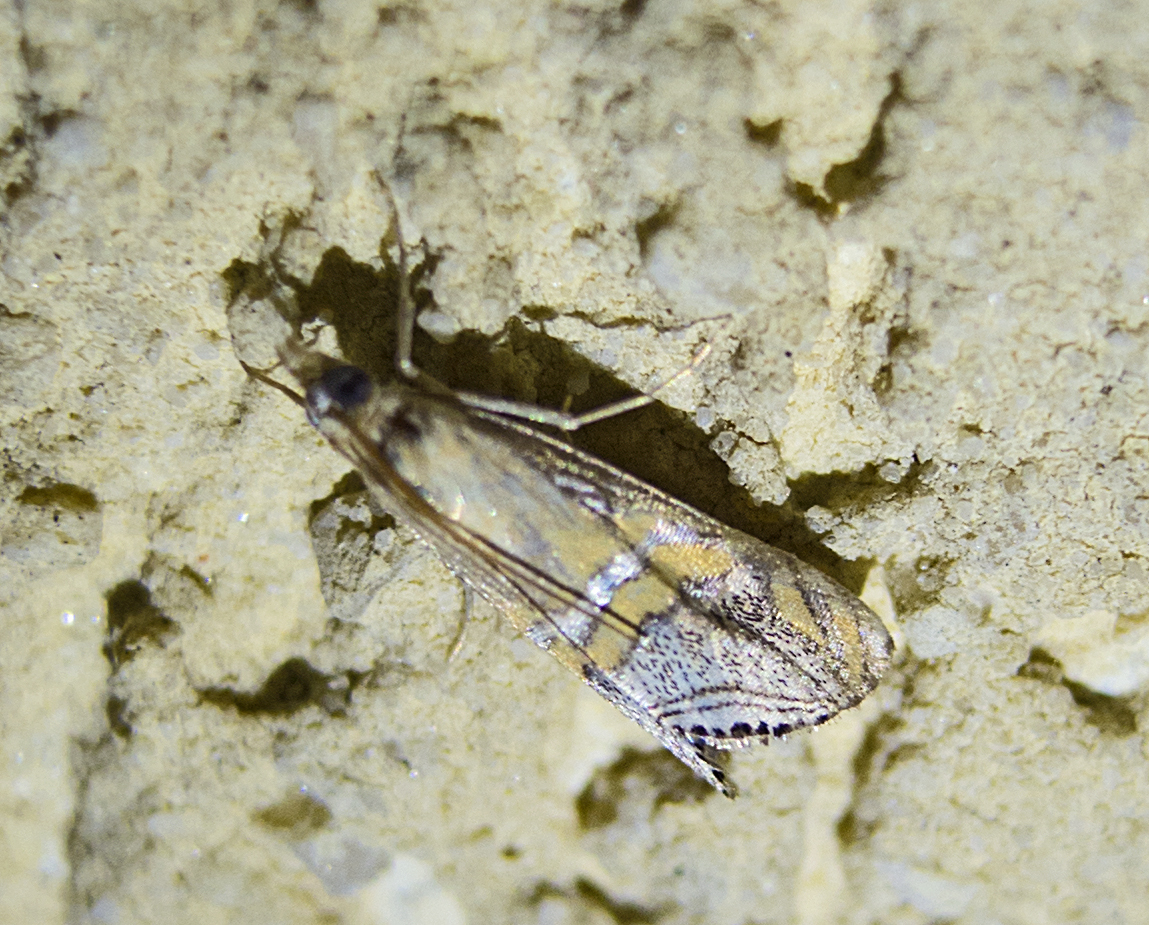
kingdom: Animalia
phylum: Arthropoda
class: Insecta
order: Lepidoptera
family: Crambidae
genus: Euchromius
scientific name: Euchromius bella
